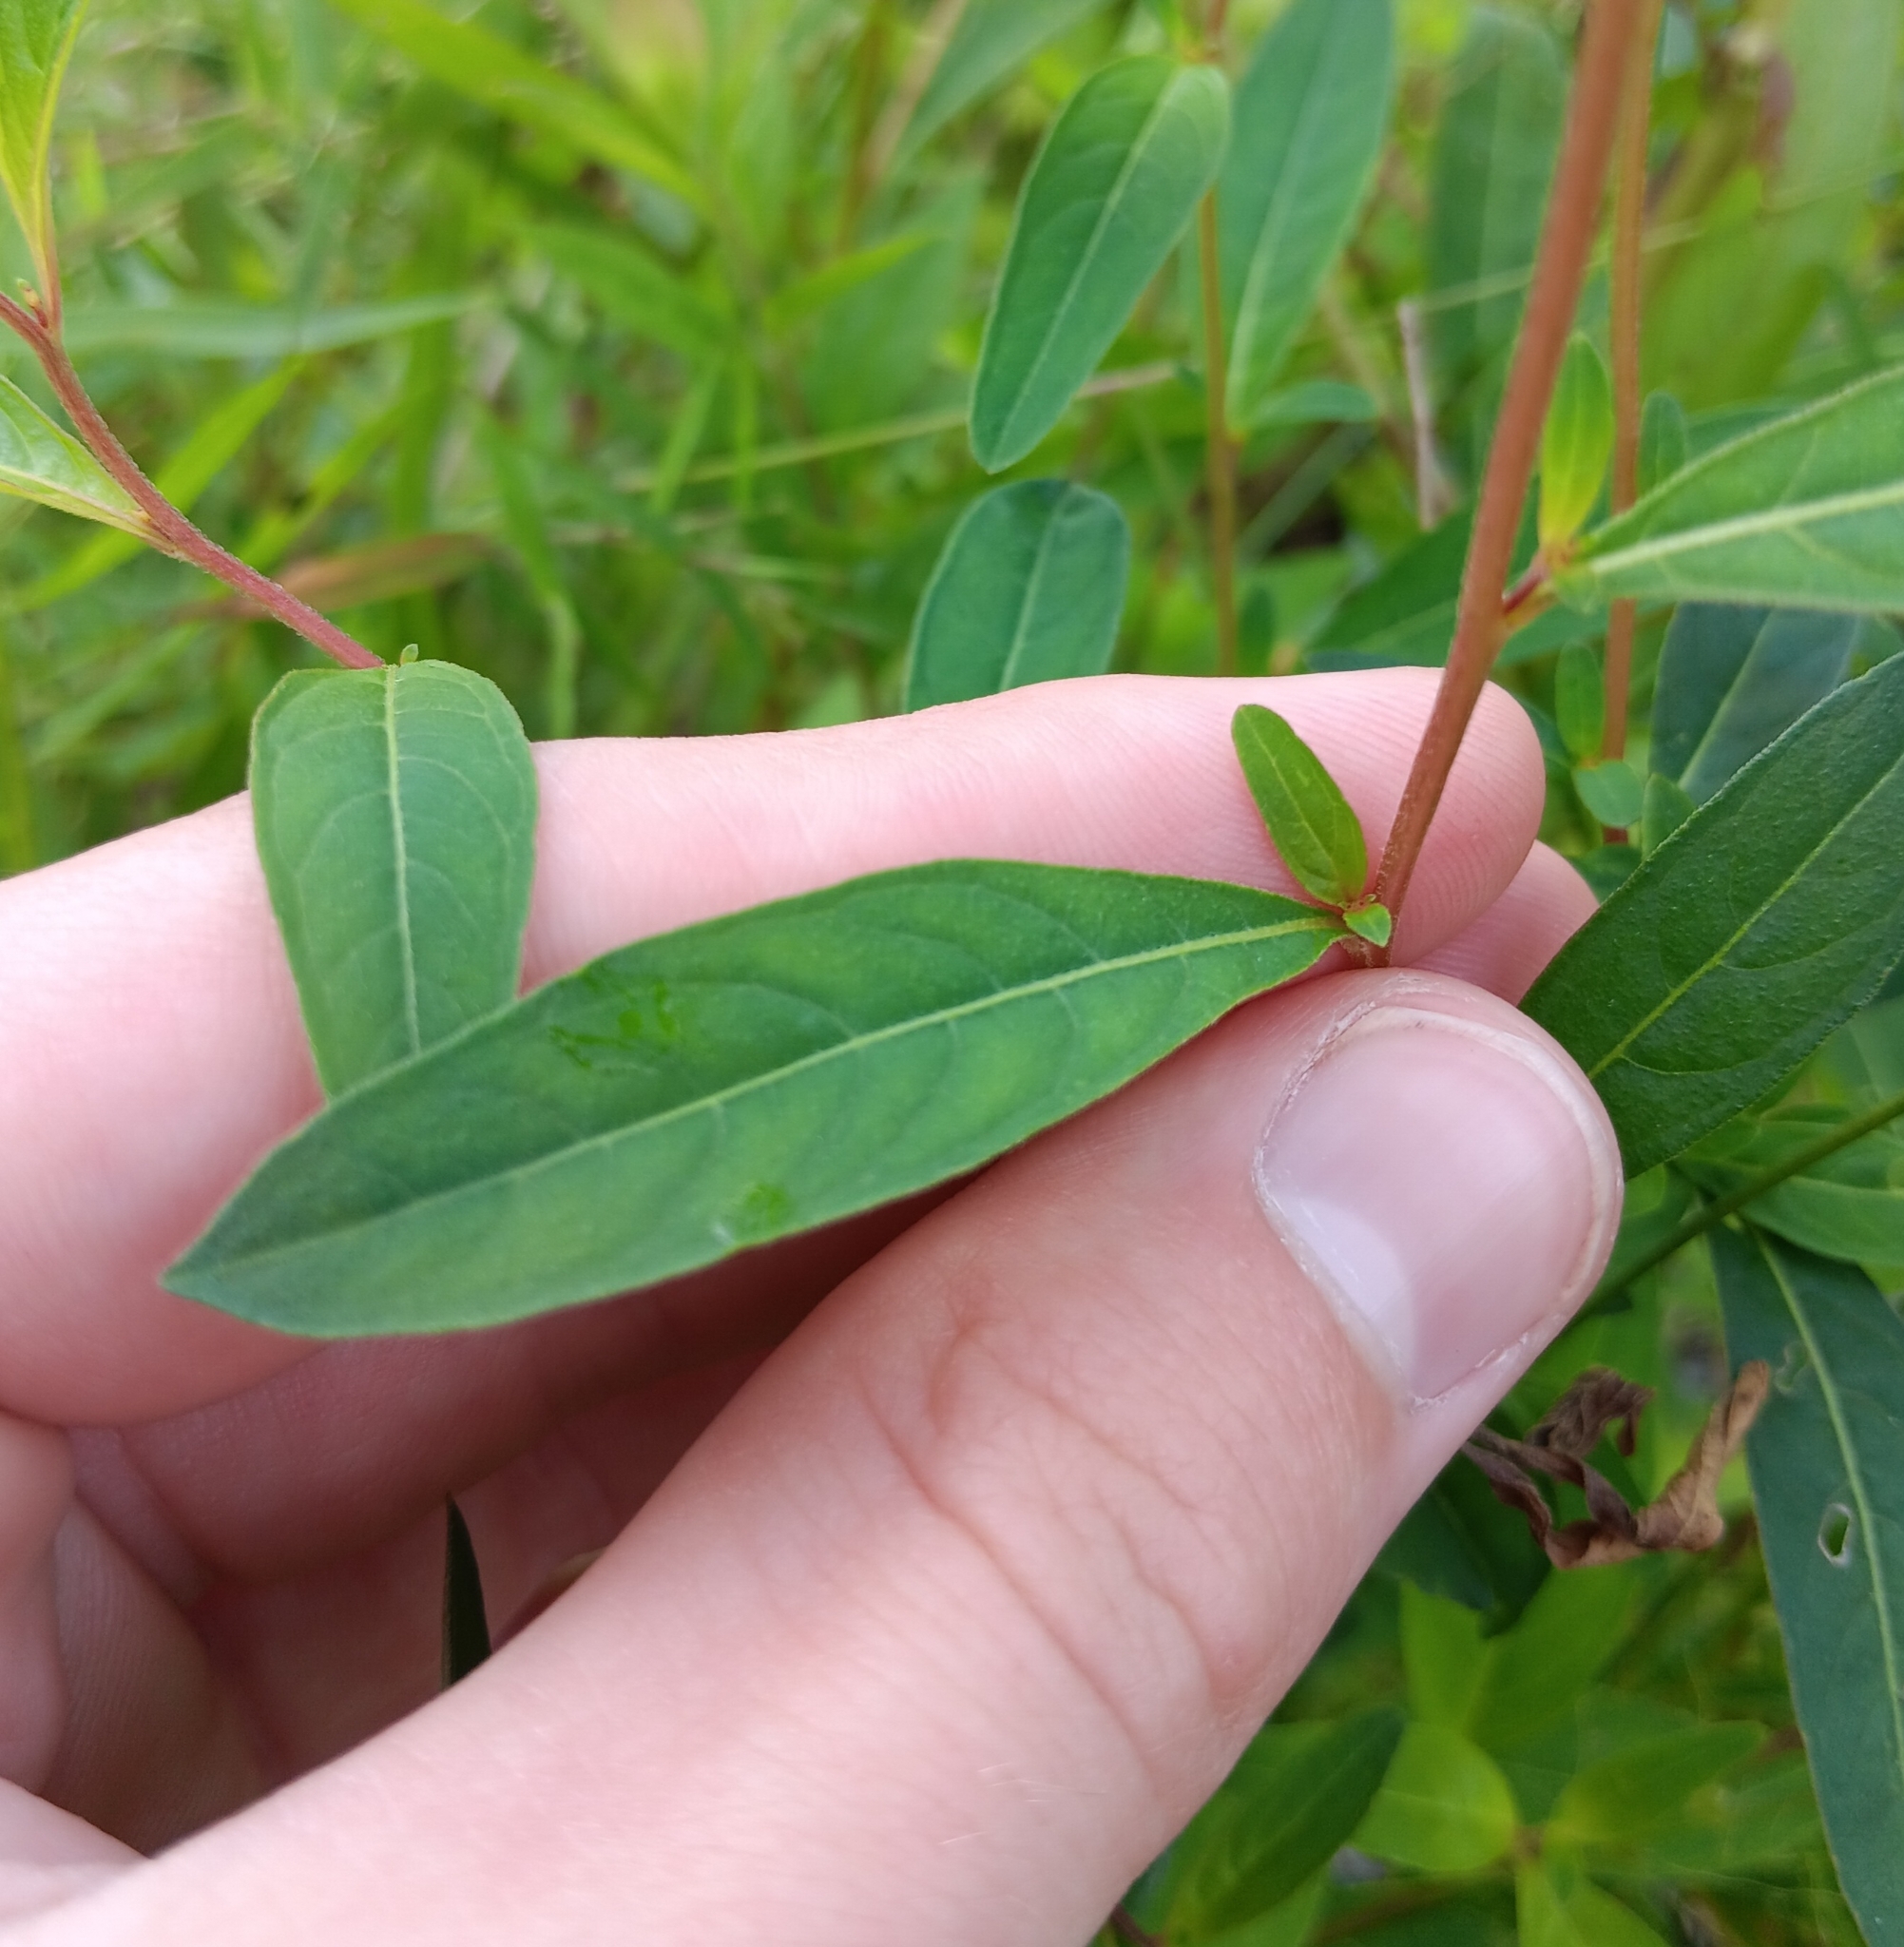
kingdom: Plantae
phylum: Tracheophyta
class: Magnoliopsida
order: Myrtales
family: Onagraceae
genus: Ludwigia
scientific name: Ludwigia alternifolia
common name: Rattlebox
